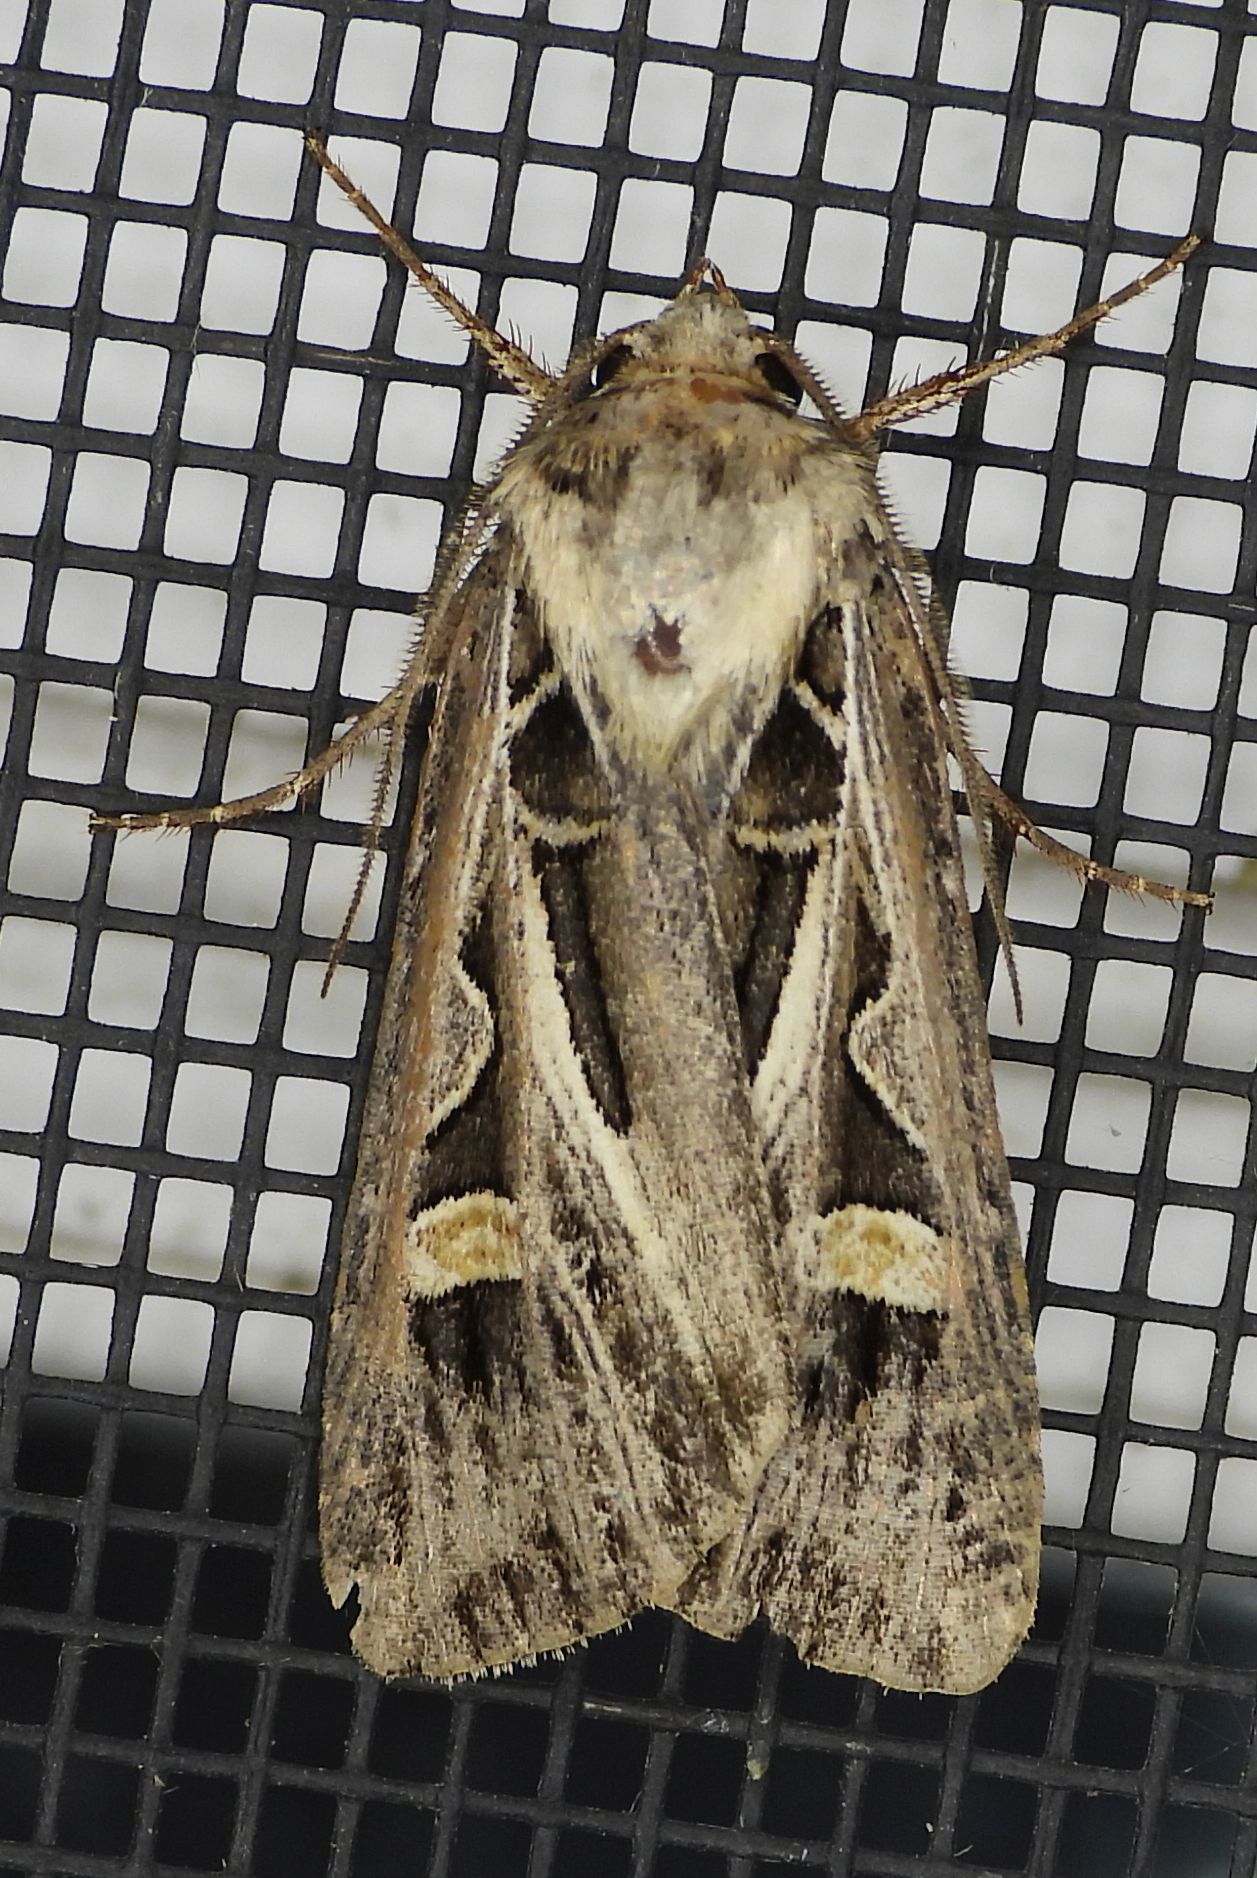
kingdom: Animalia
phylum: Arthropoda
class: Insecta
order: Lepidoptera
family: Noctuidae
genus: Feltia
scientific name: Feltia jaculifera
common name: Dingy cutworm moth
